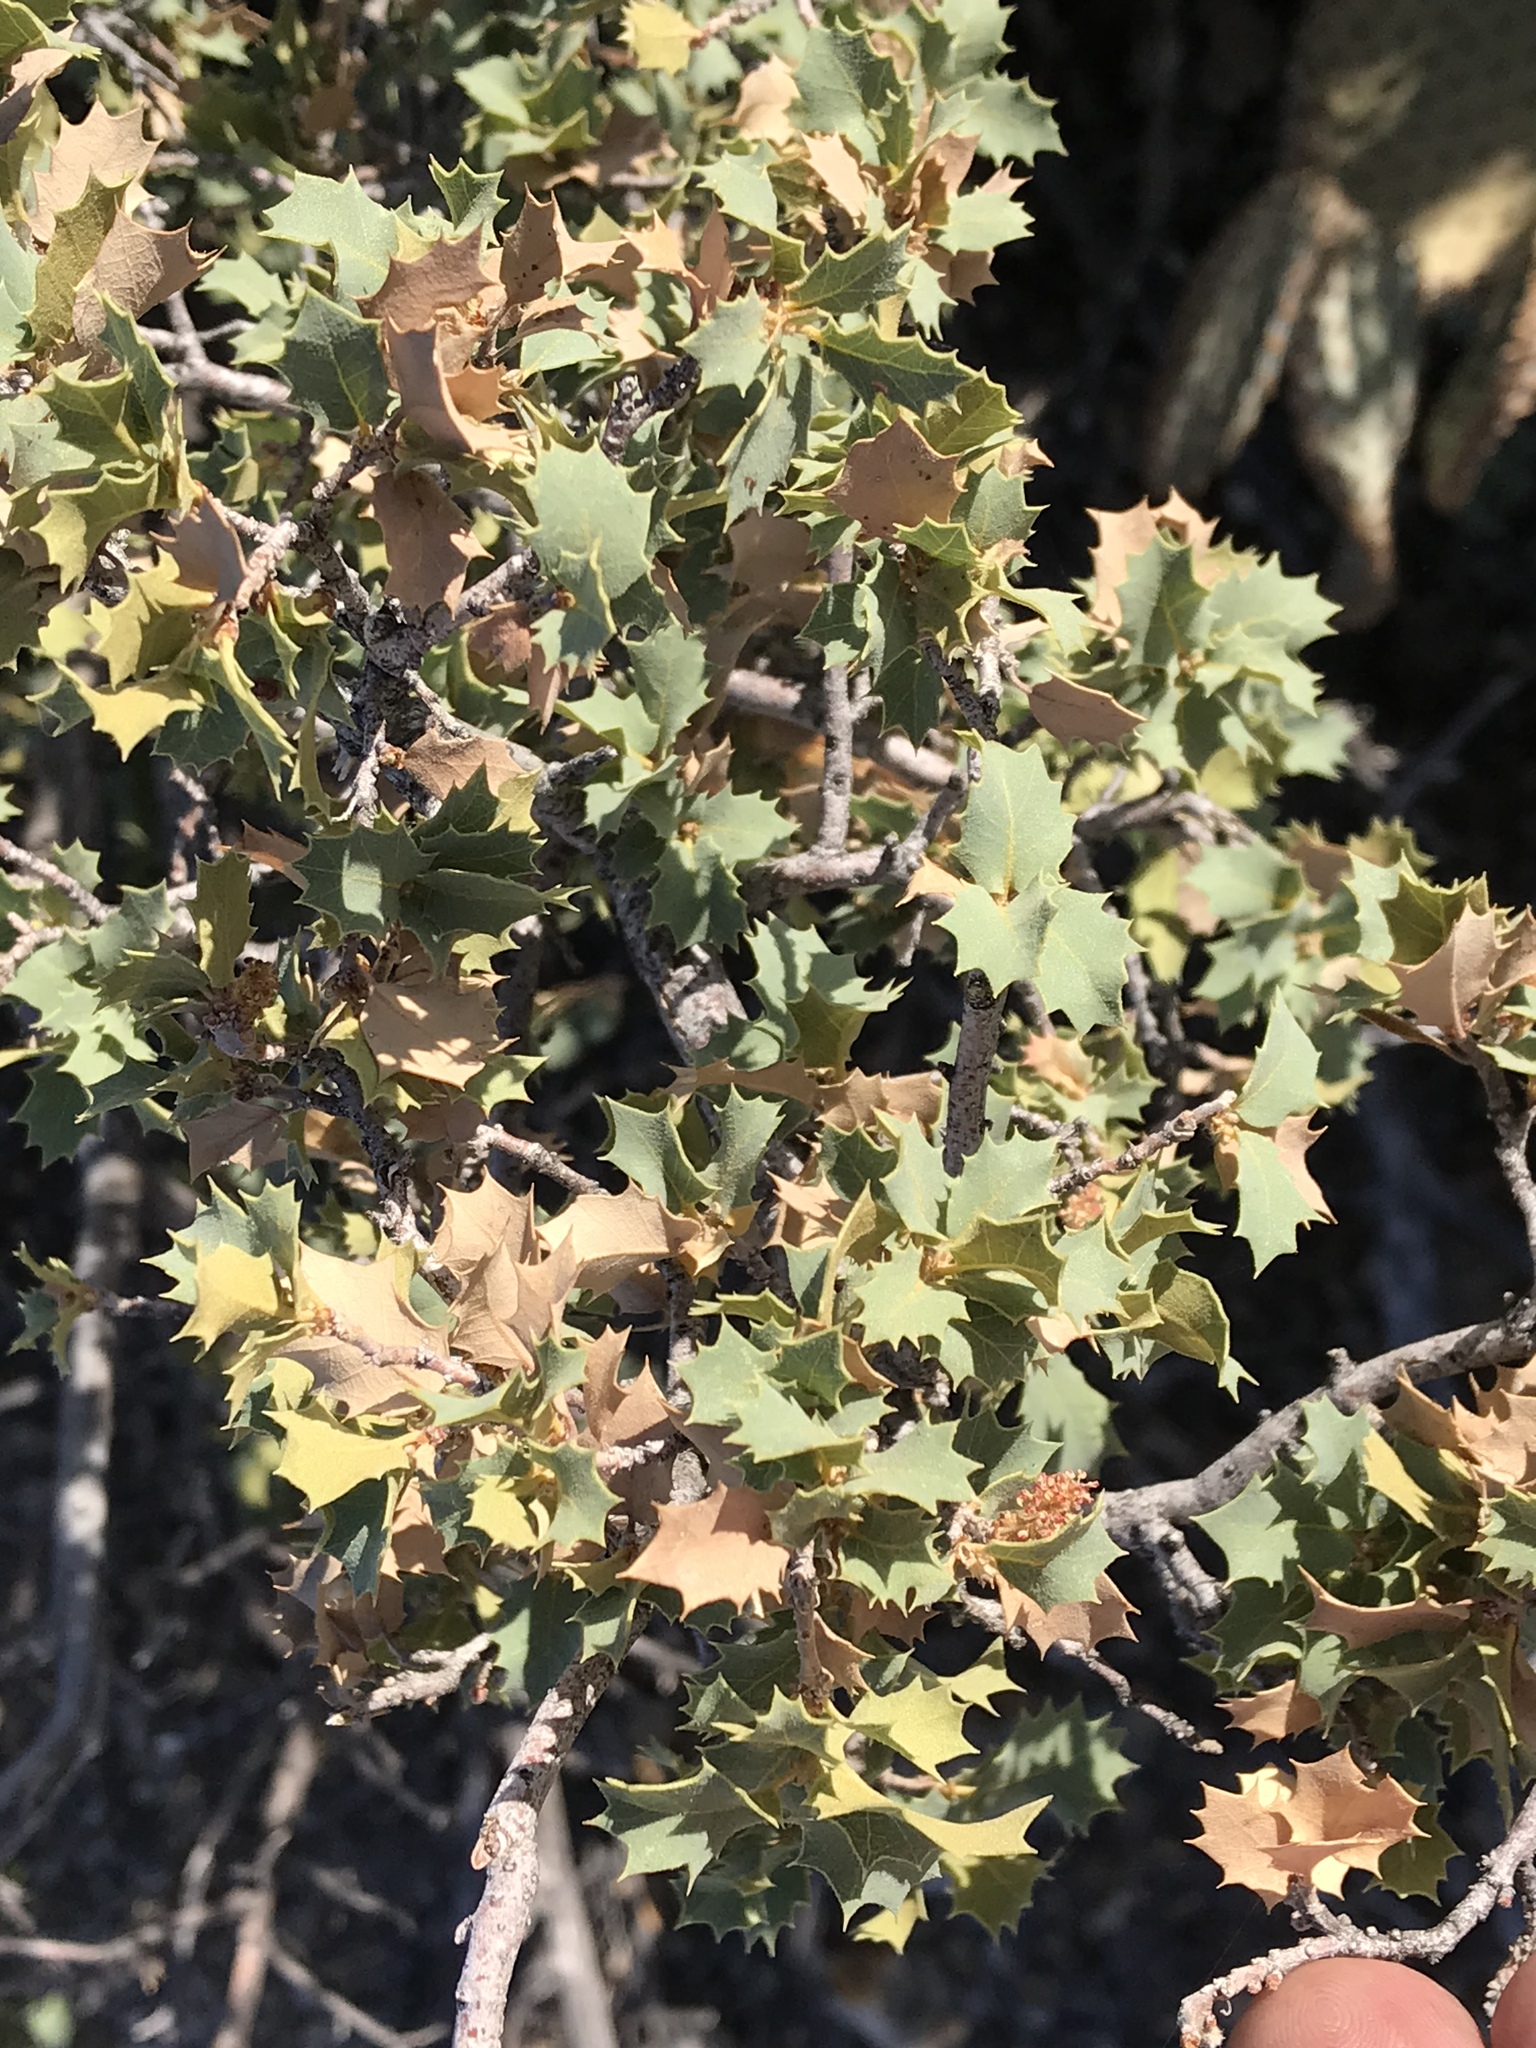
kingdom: Plantae
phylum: Tracheophyta
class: Magnoliopsida
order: Fagales
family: Fagaceae
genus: Quercus
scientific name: Quercus turbinella
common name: Sonoran scrub oak
